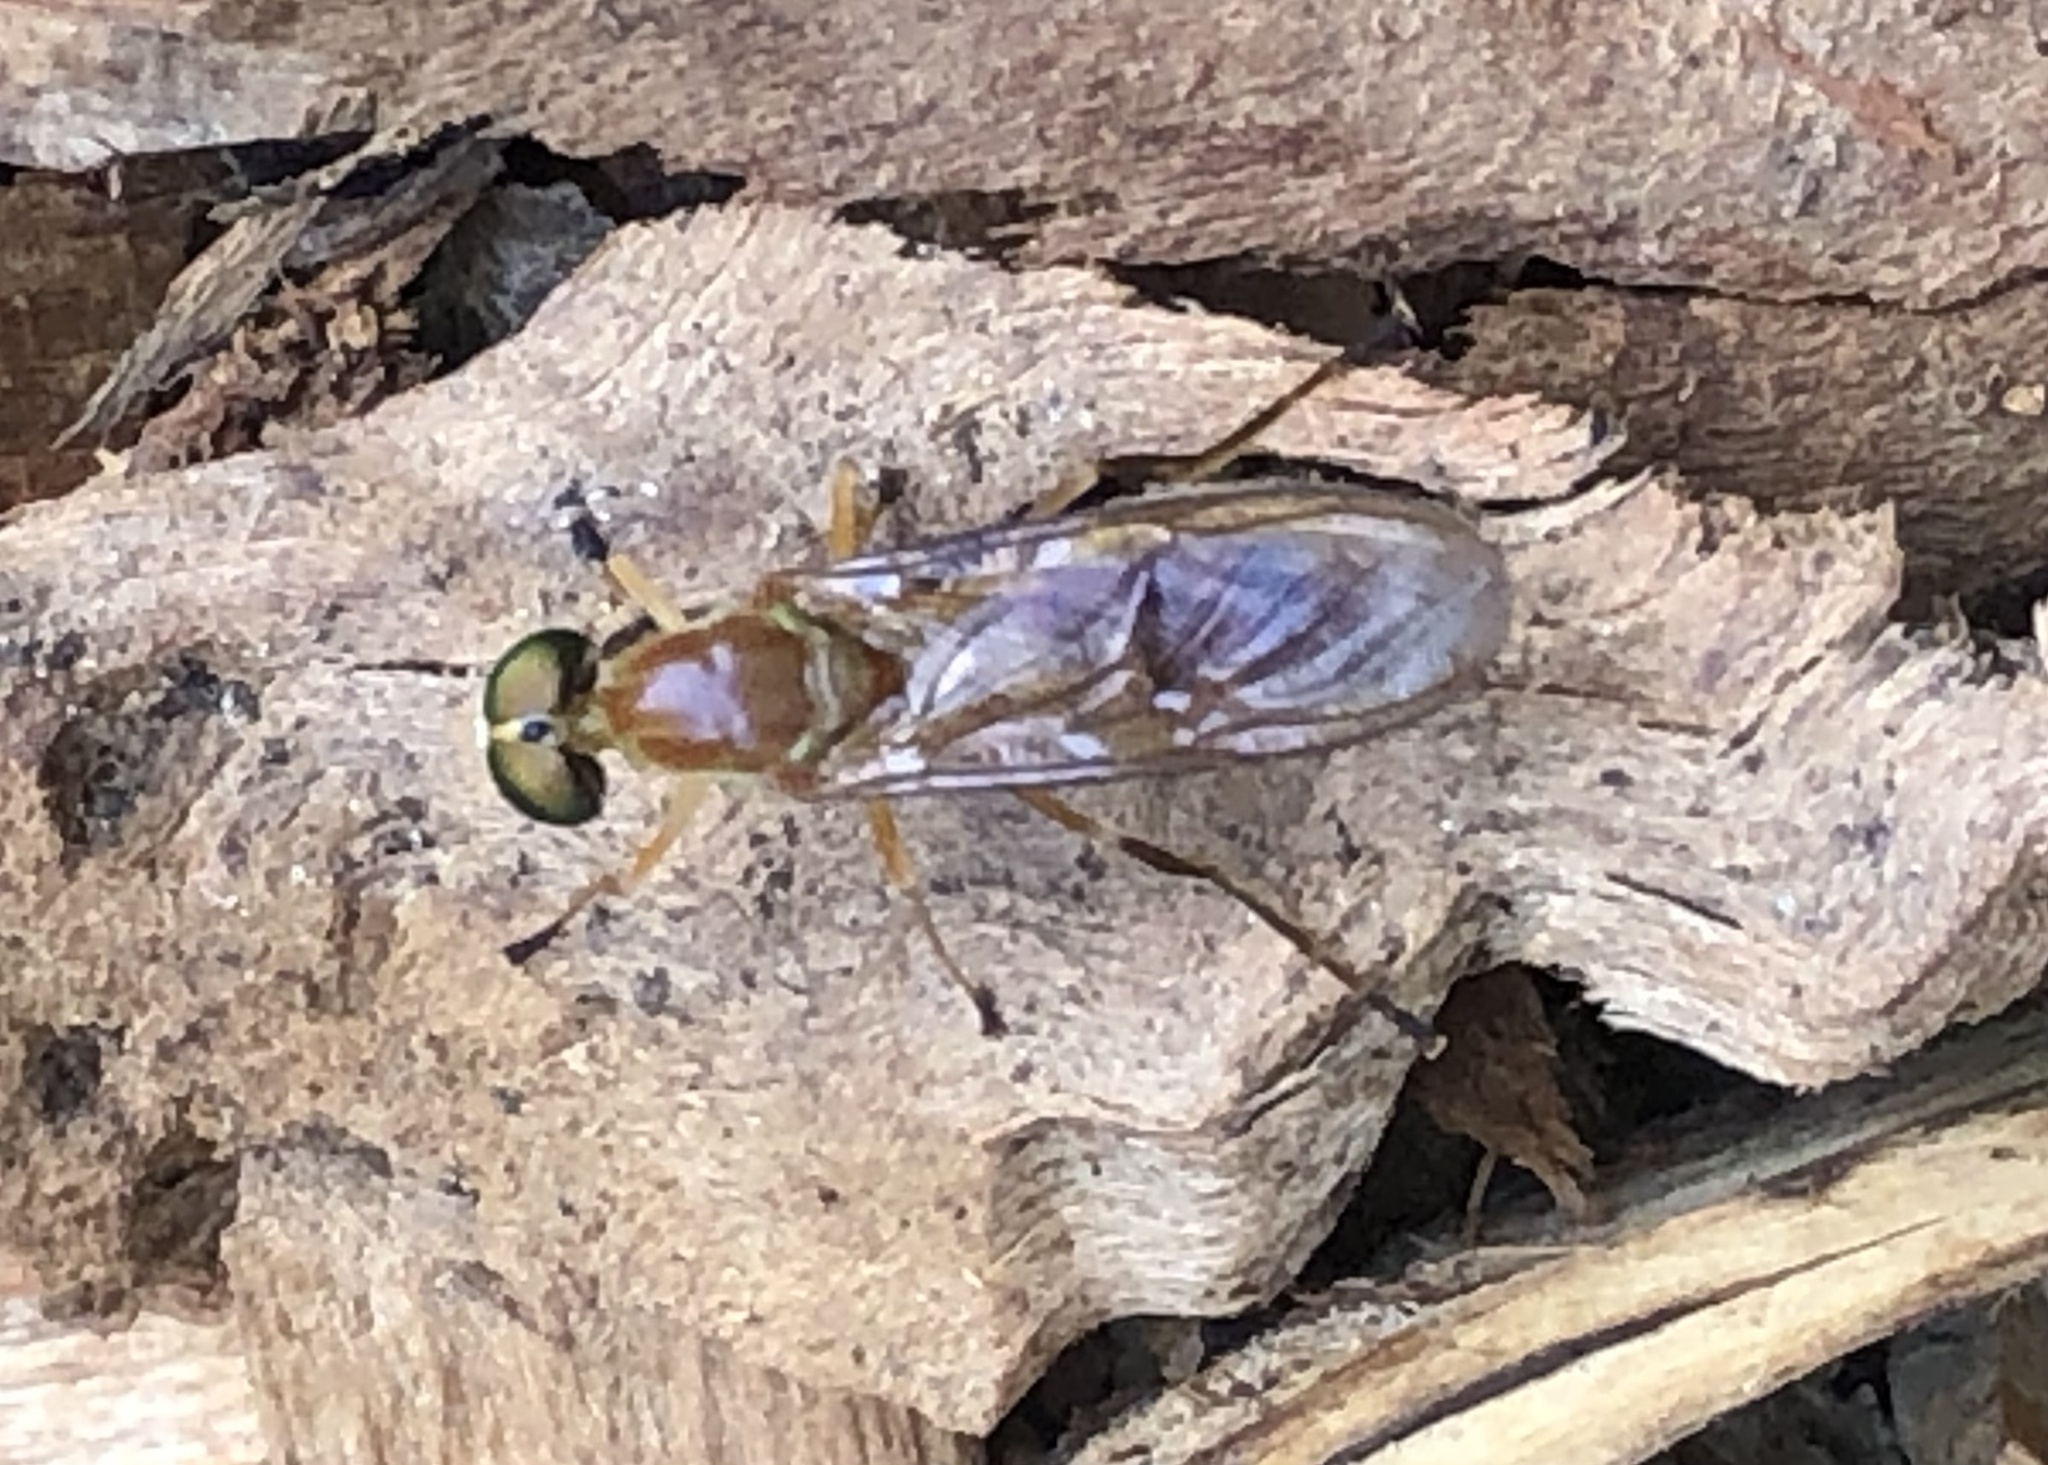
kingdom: Animalia
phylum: Arthropoda
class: Insecta
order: Diptera
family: Stratiomyidae
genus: Ptecticus
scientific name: Ptecticus trivittatus
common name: Compost fly
